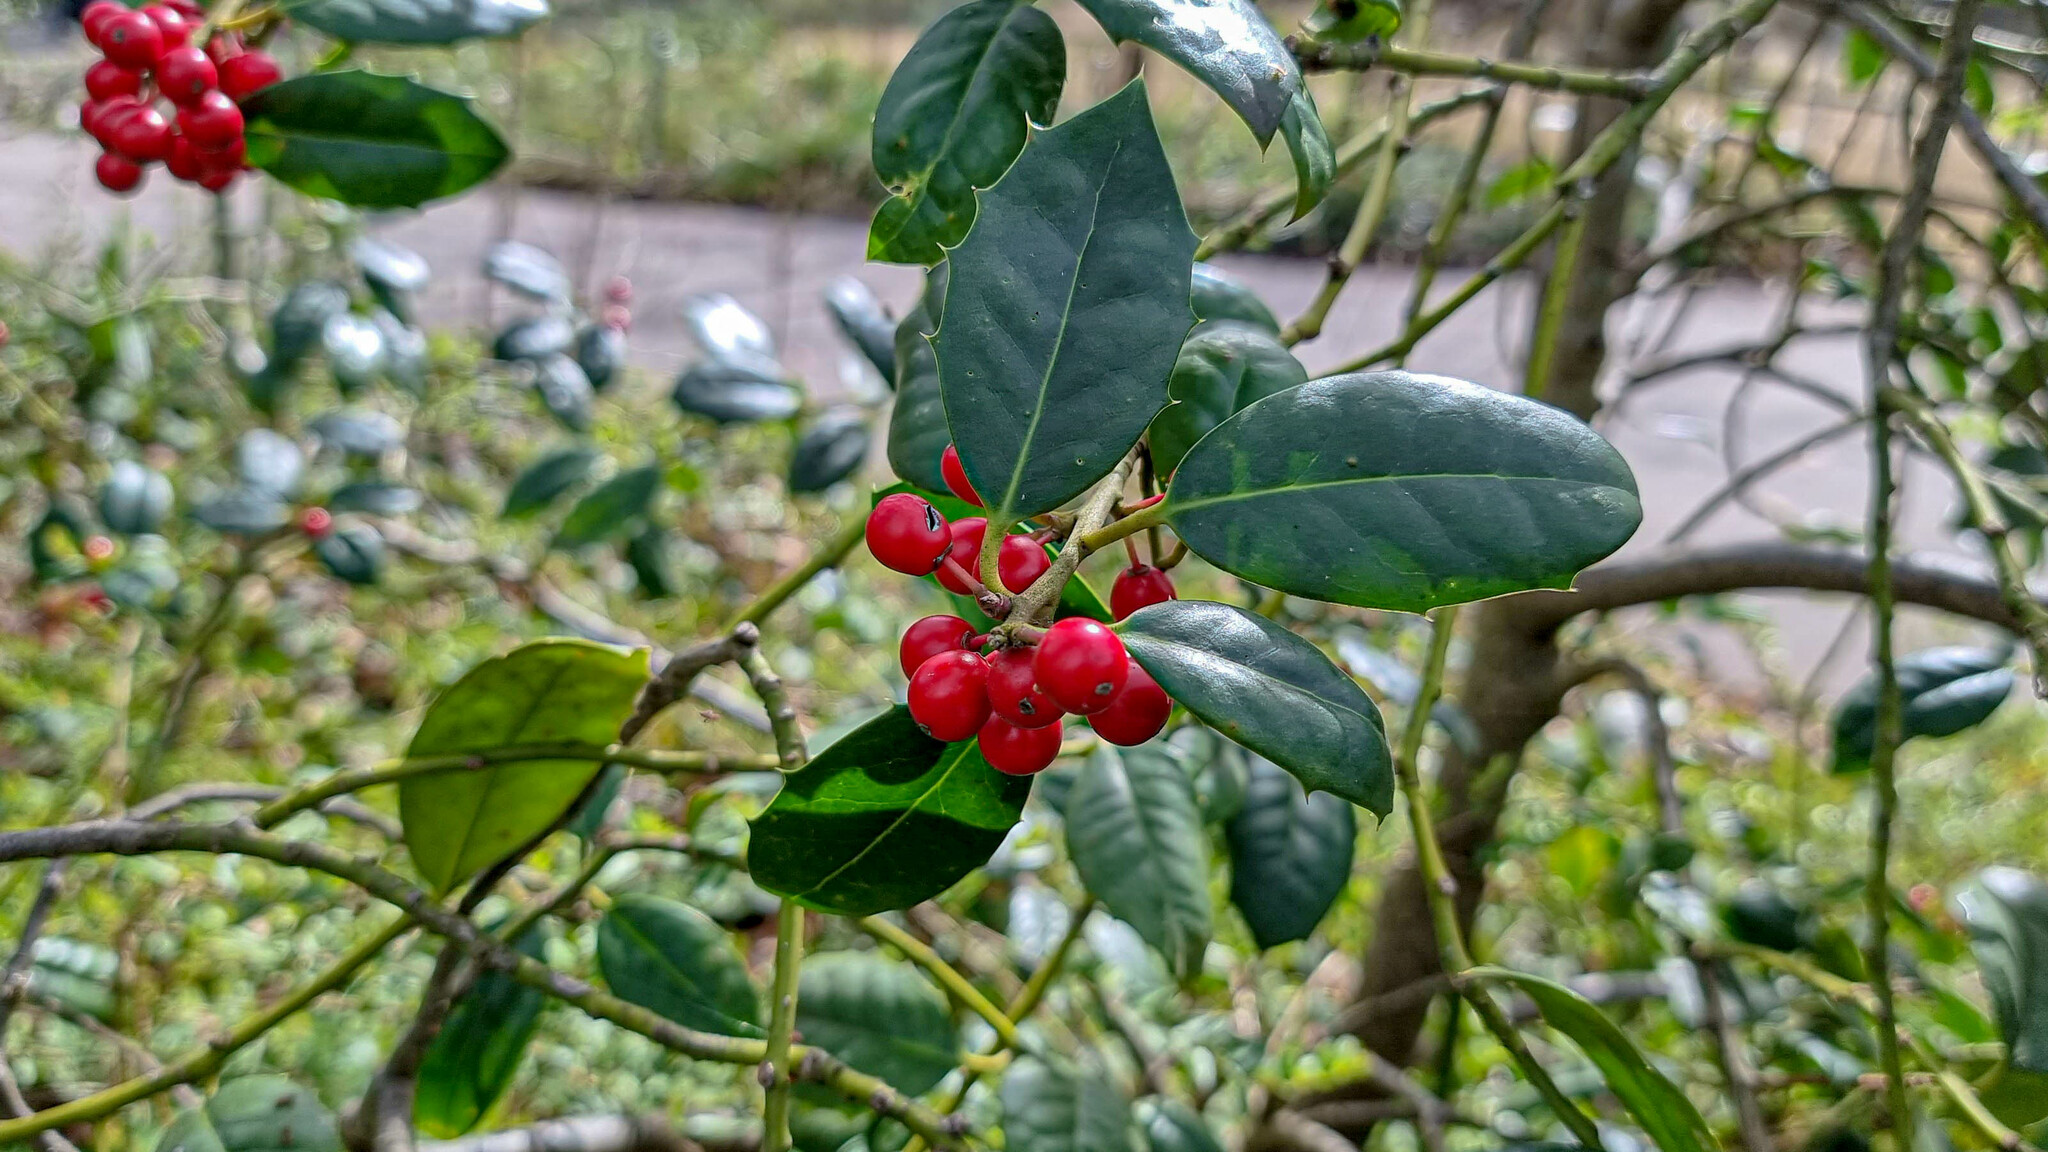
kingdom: Plantae
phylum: Tracheophyta
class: Magnoliopsida
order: Aquifoliales
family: Aquifoliaceae
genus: Ilex
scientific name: Ilex aquifolium
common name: English holly
